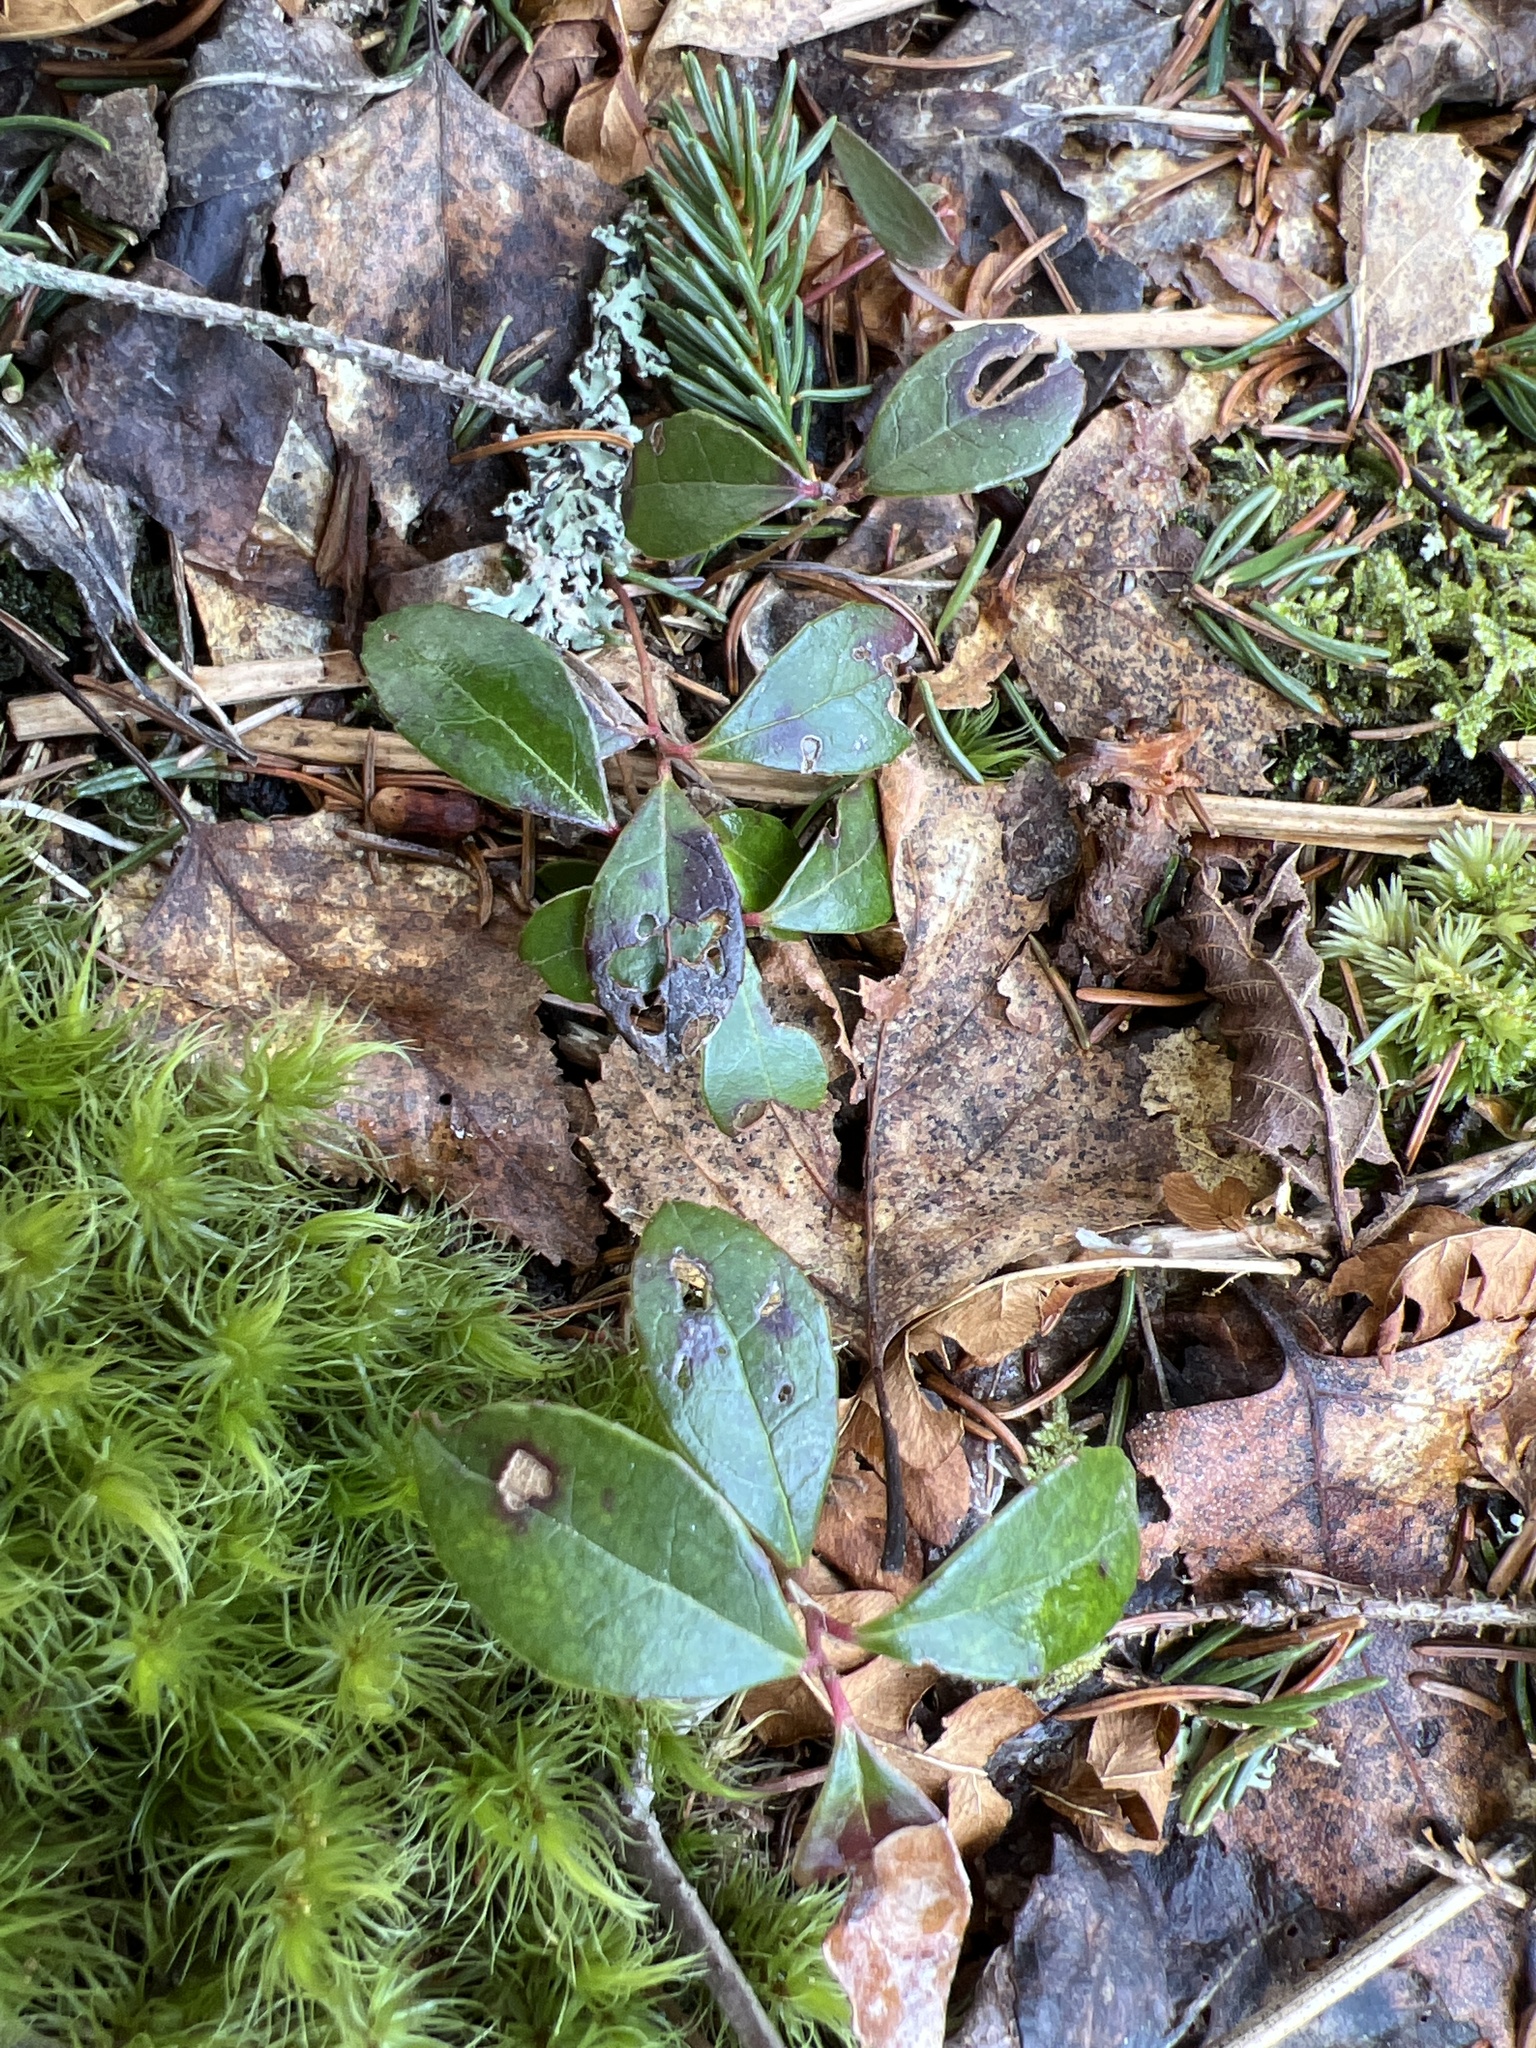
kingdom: Plantae
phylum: Tracheophyta
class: Magnoliopsida
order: Ericales
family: Ericaceae
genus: Gaultheria
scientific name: Gaultheria procumbens
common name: Checkerberry
